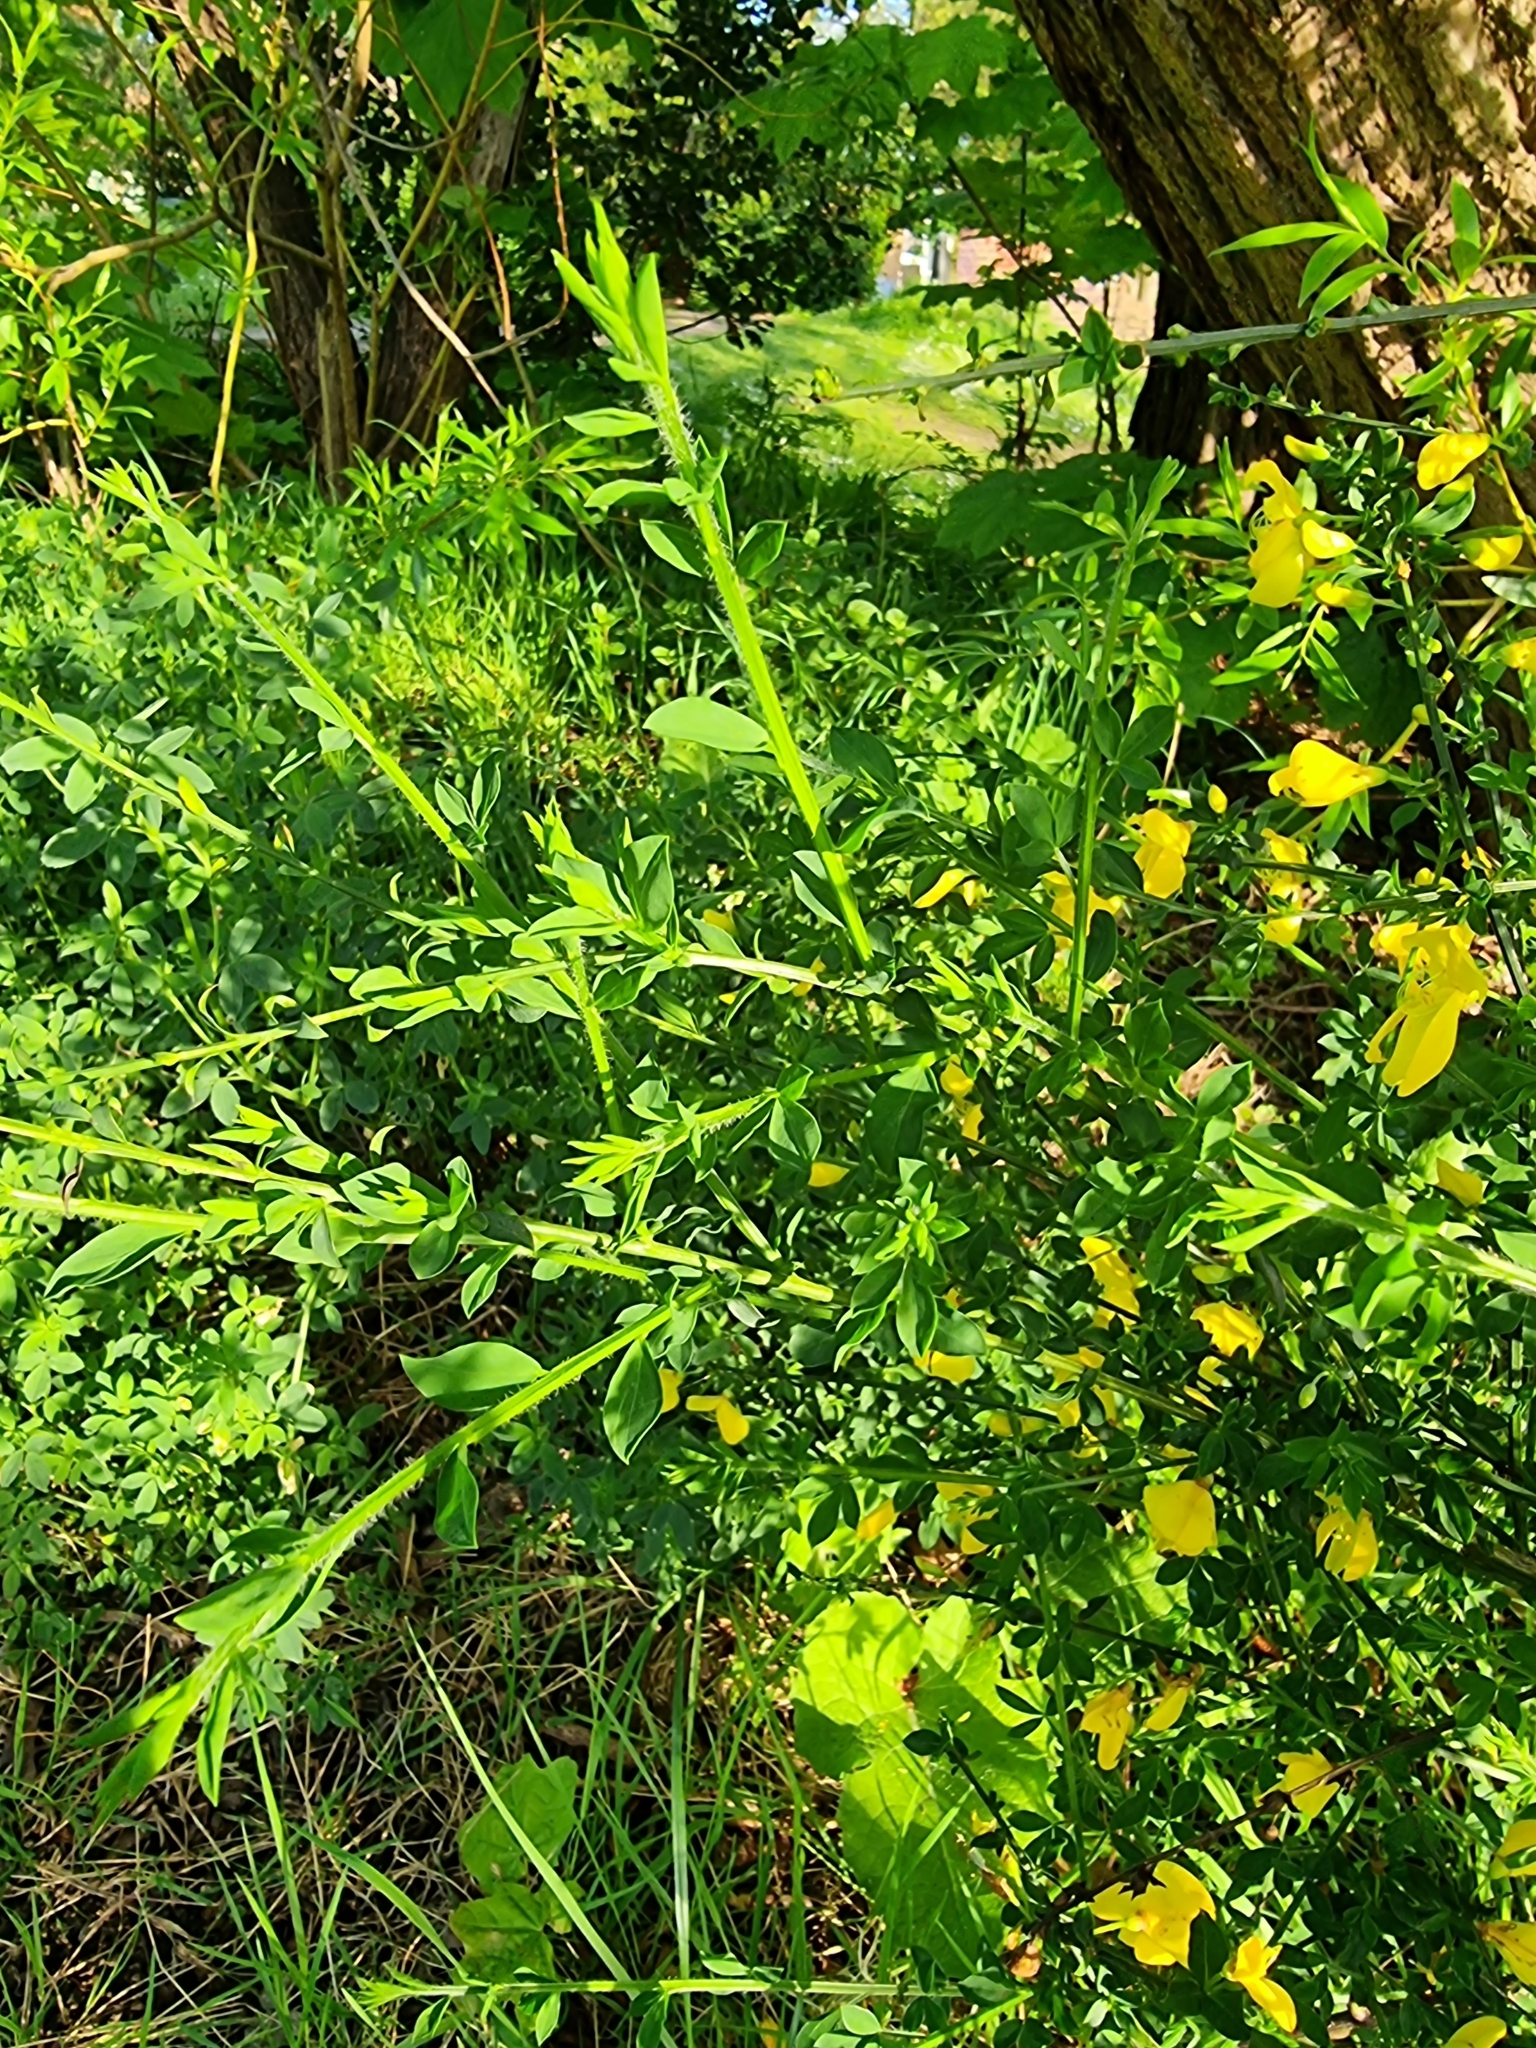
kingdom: Plantae
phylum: Tracheophyta
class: Magnoliopsida
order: Fabales
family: Fabaceae
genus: Cytisus
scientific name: Cytisus scoparius
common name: Scotch broom
